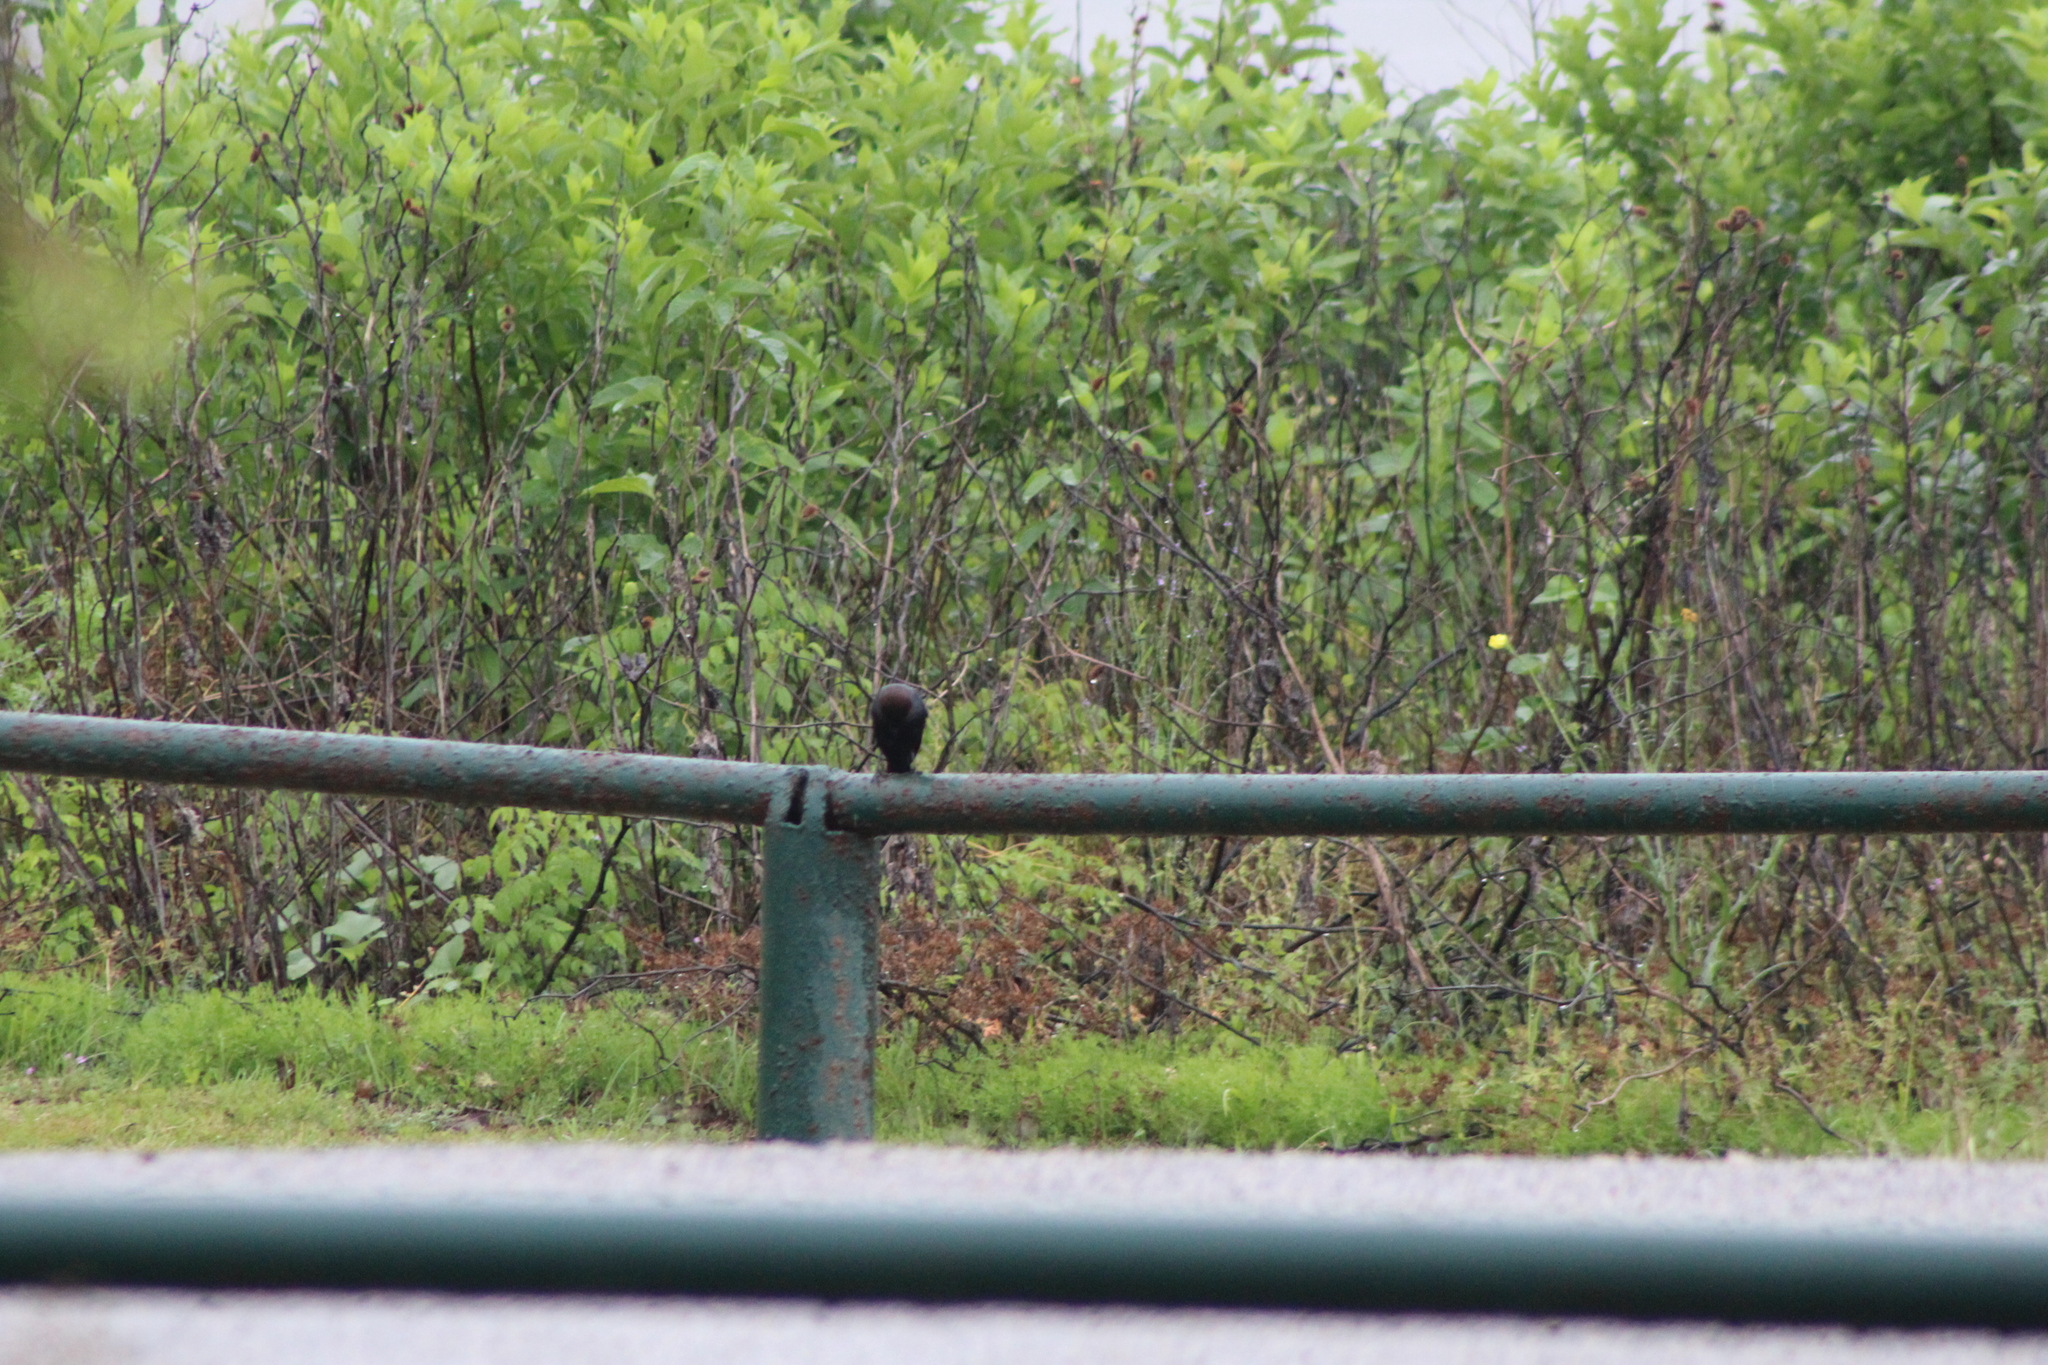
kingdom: Animalia
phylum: Chordata
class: Aves
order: Passeriformes
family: Icteridae
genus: Molothrus
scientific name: Molothrus ater
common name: Brown-headed cowbird
